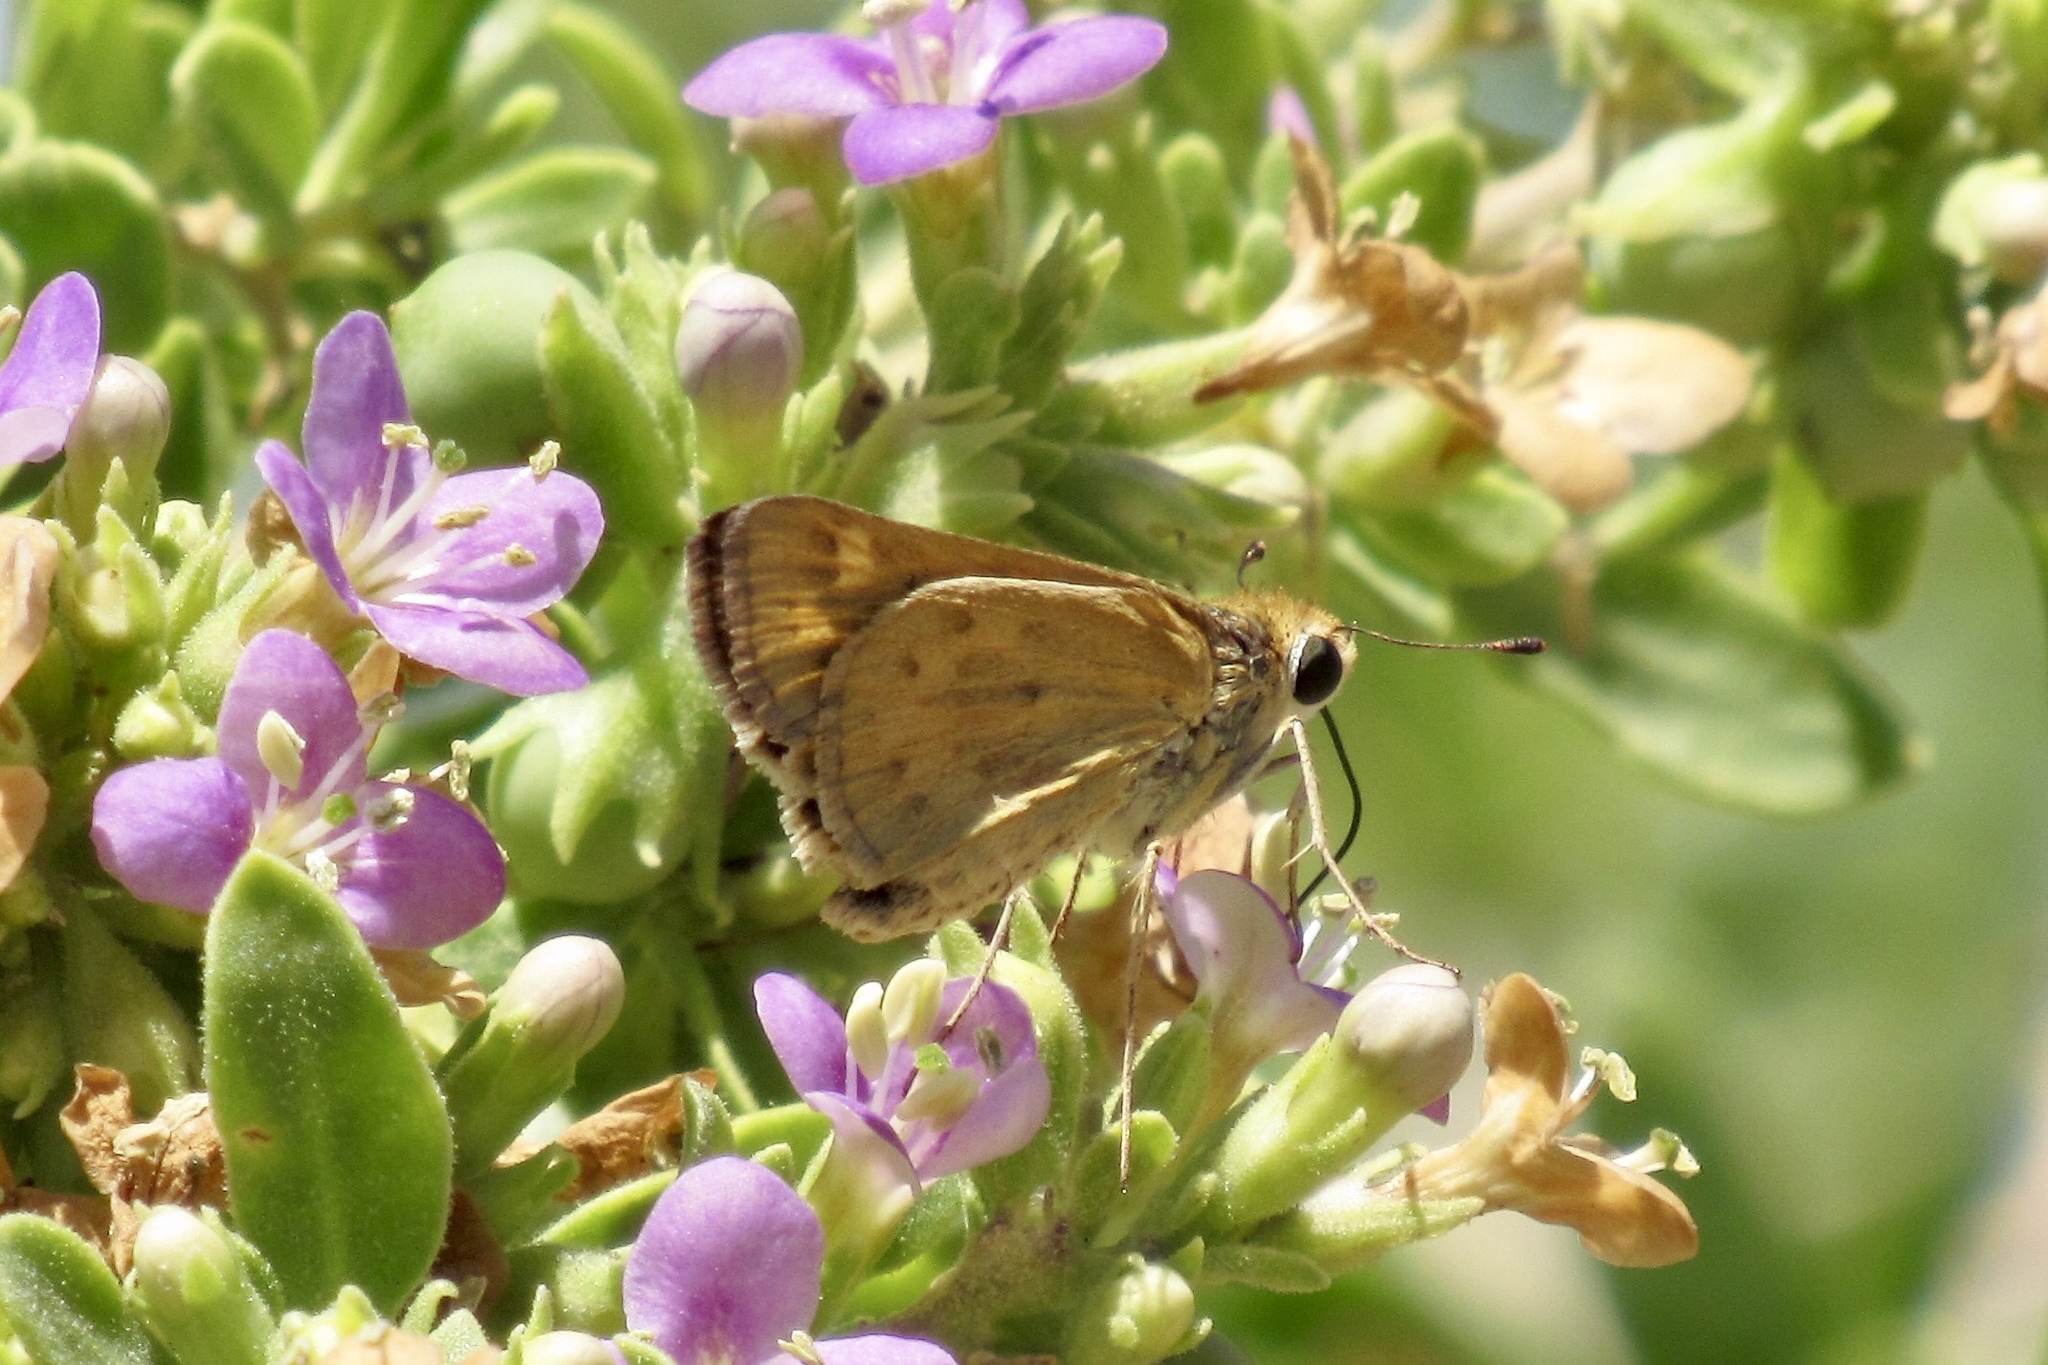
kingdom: Animalia
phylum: Arthropoda
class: Insecta
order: Lepidoptera
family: Hesperiidae
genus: Hylephila
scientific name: Hylephila phyleus
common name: Fiery skipper
